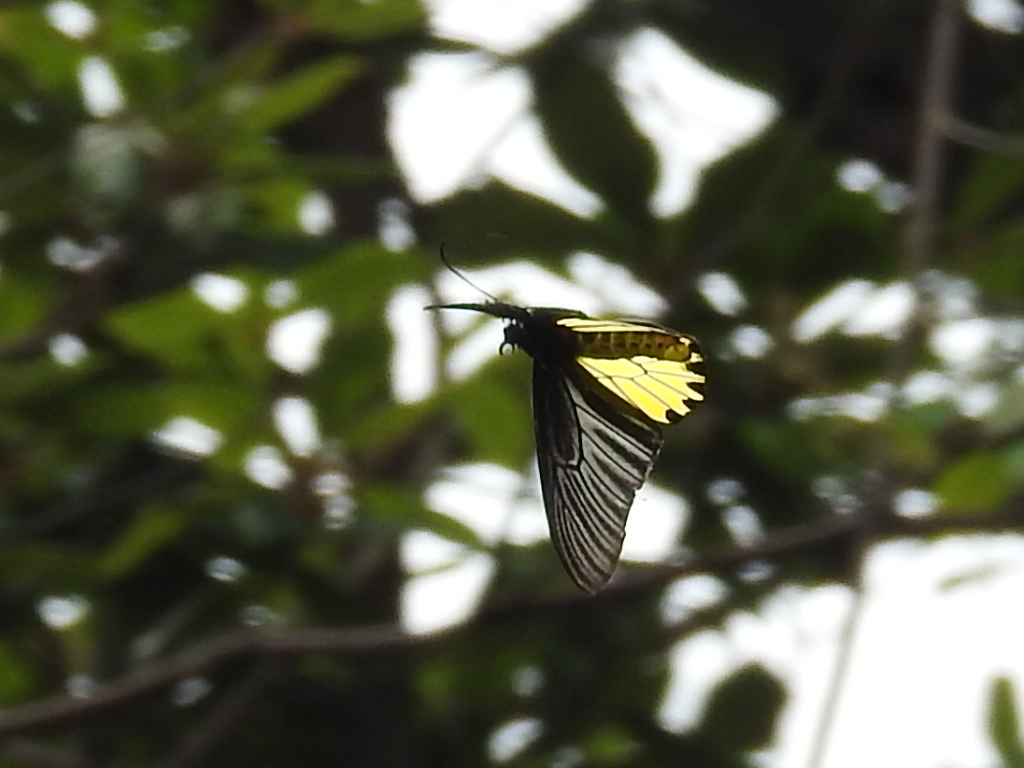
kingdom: Animalia
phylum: Arthropoda
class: Insecta
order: Lepidoptera
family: Papilionidae
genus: Troides
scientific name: Troides aeacus
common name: Golden birdwing
